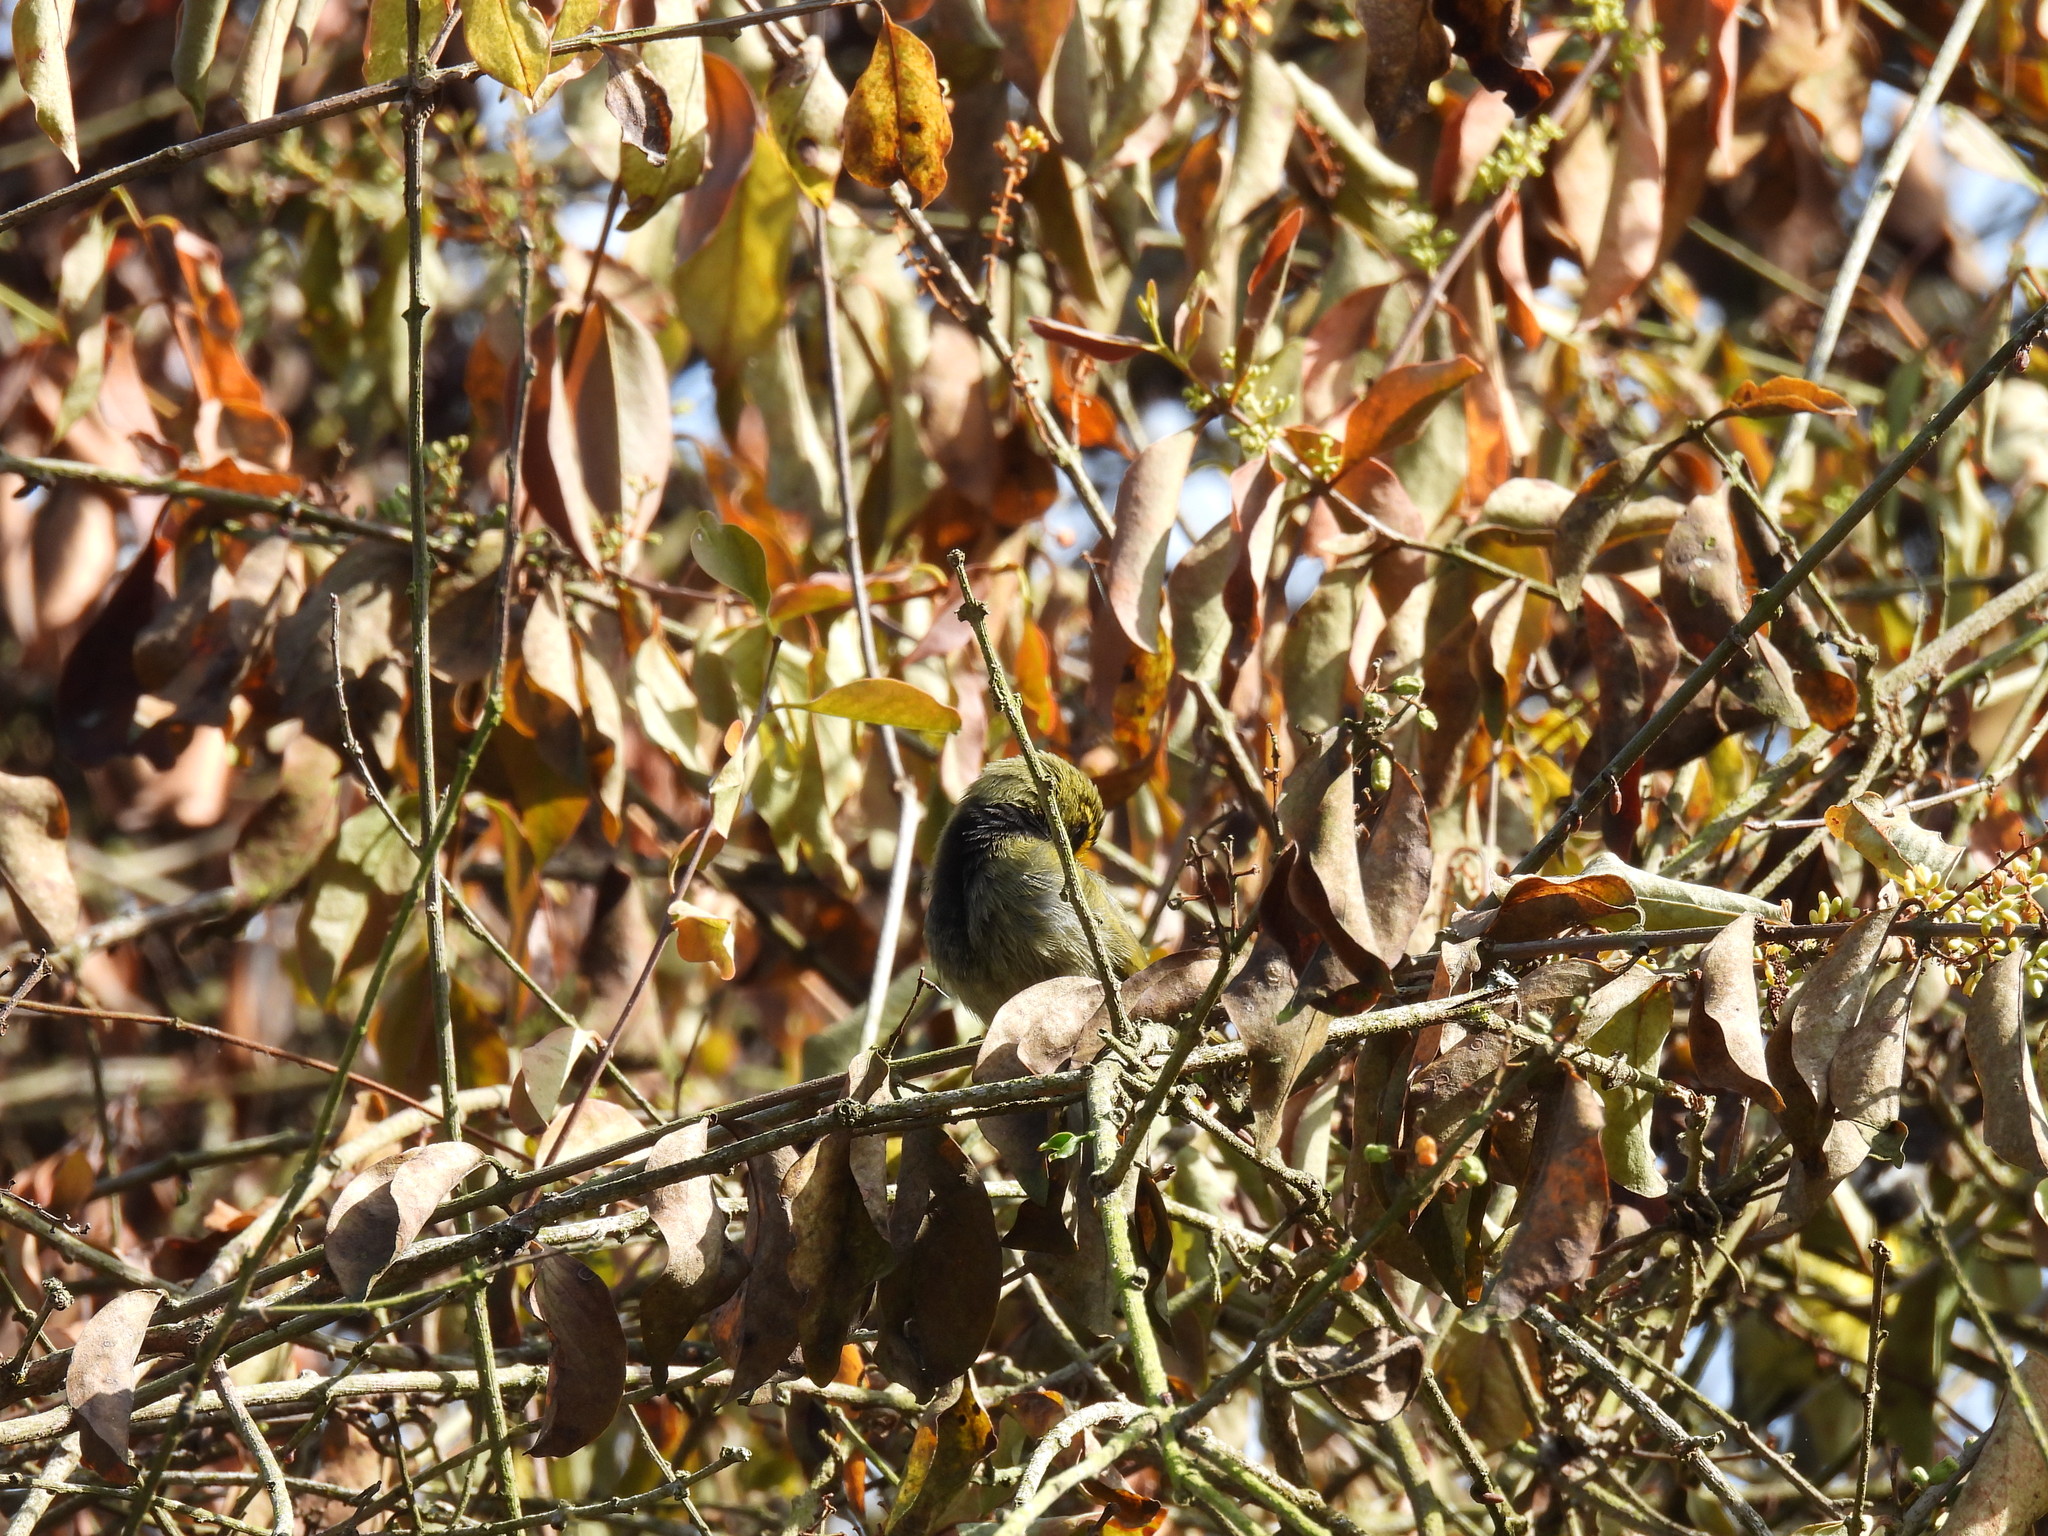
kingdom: Animalia
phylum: Chordata
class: Aves
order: Passeriformes
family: Thraupidae
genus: Tiaris
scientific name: Tiaris olivaceus
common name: Yellow-faced grassquit
